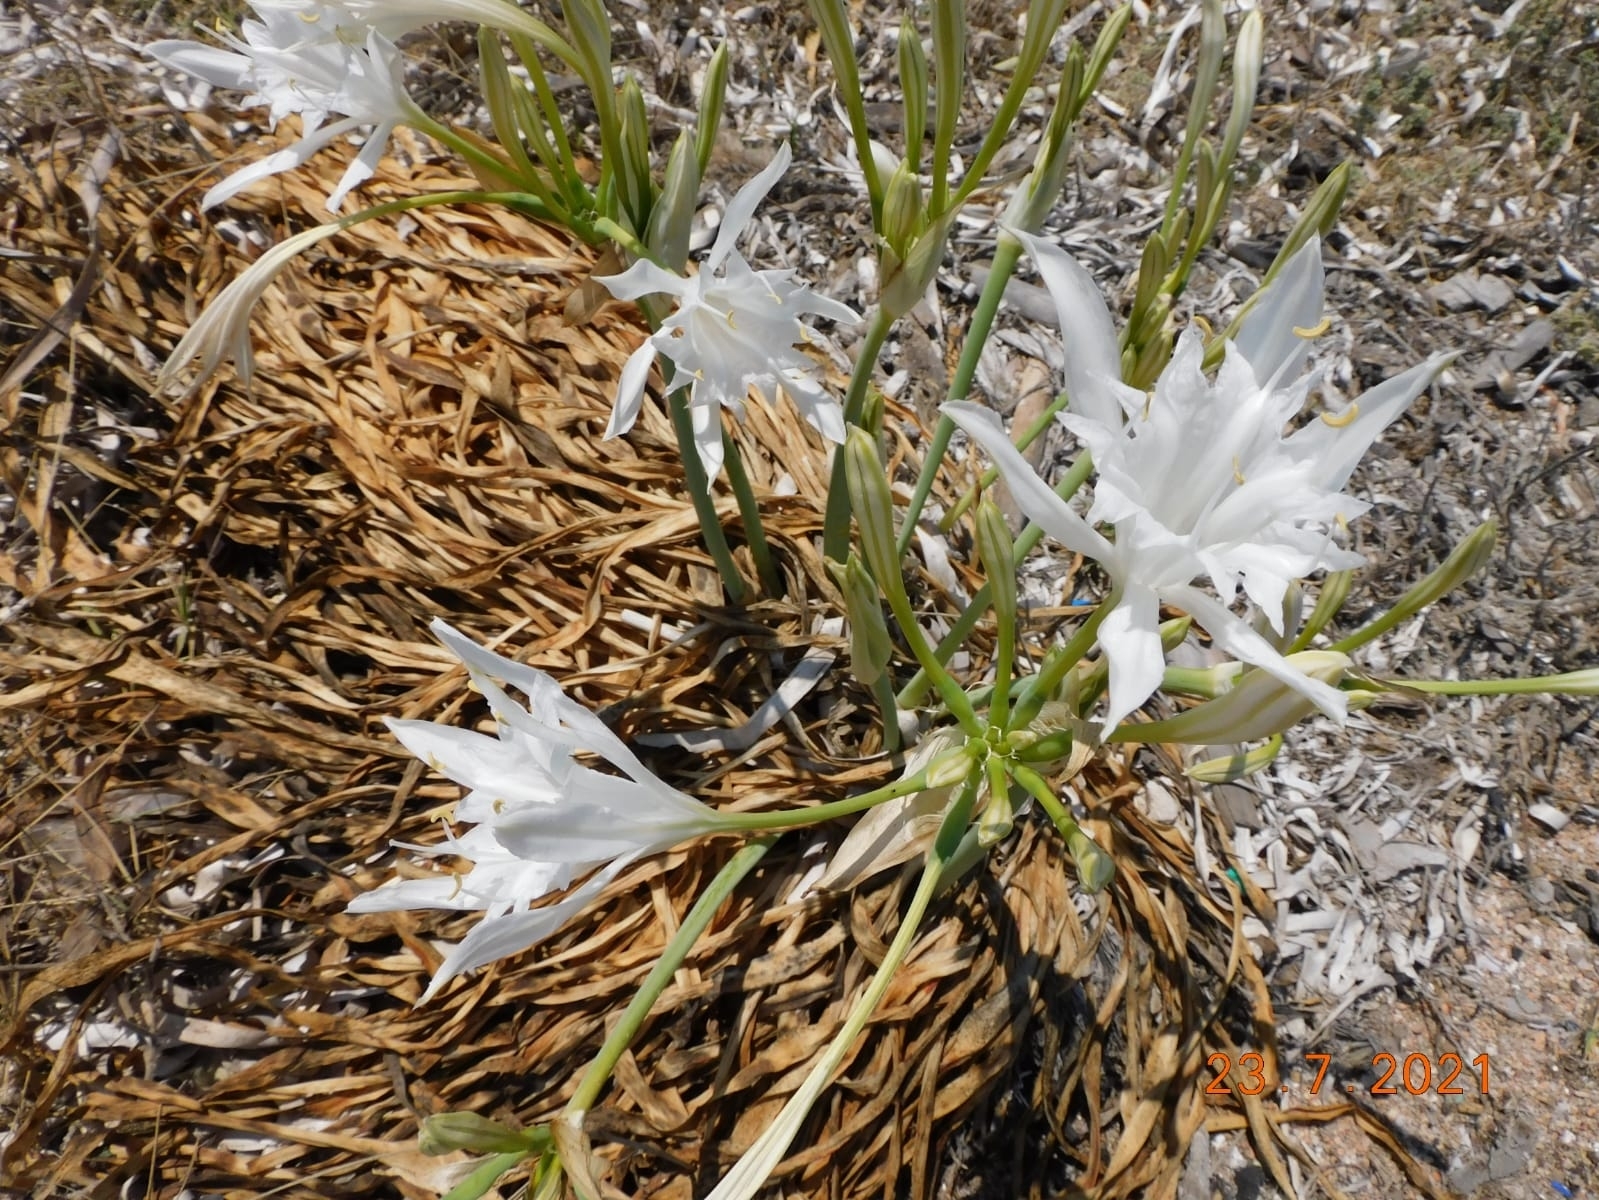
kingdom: Plantae
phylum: Tracheophyta
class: Liliopsida
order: Asparagales
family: Amaryllidaceae
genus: Pancratium
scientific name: Pancratium maritimum
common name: Sea-daffodil
